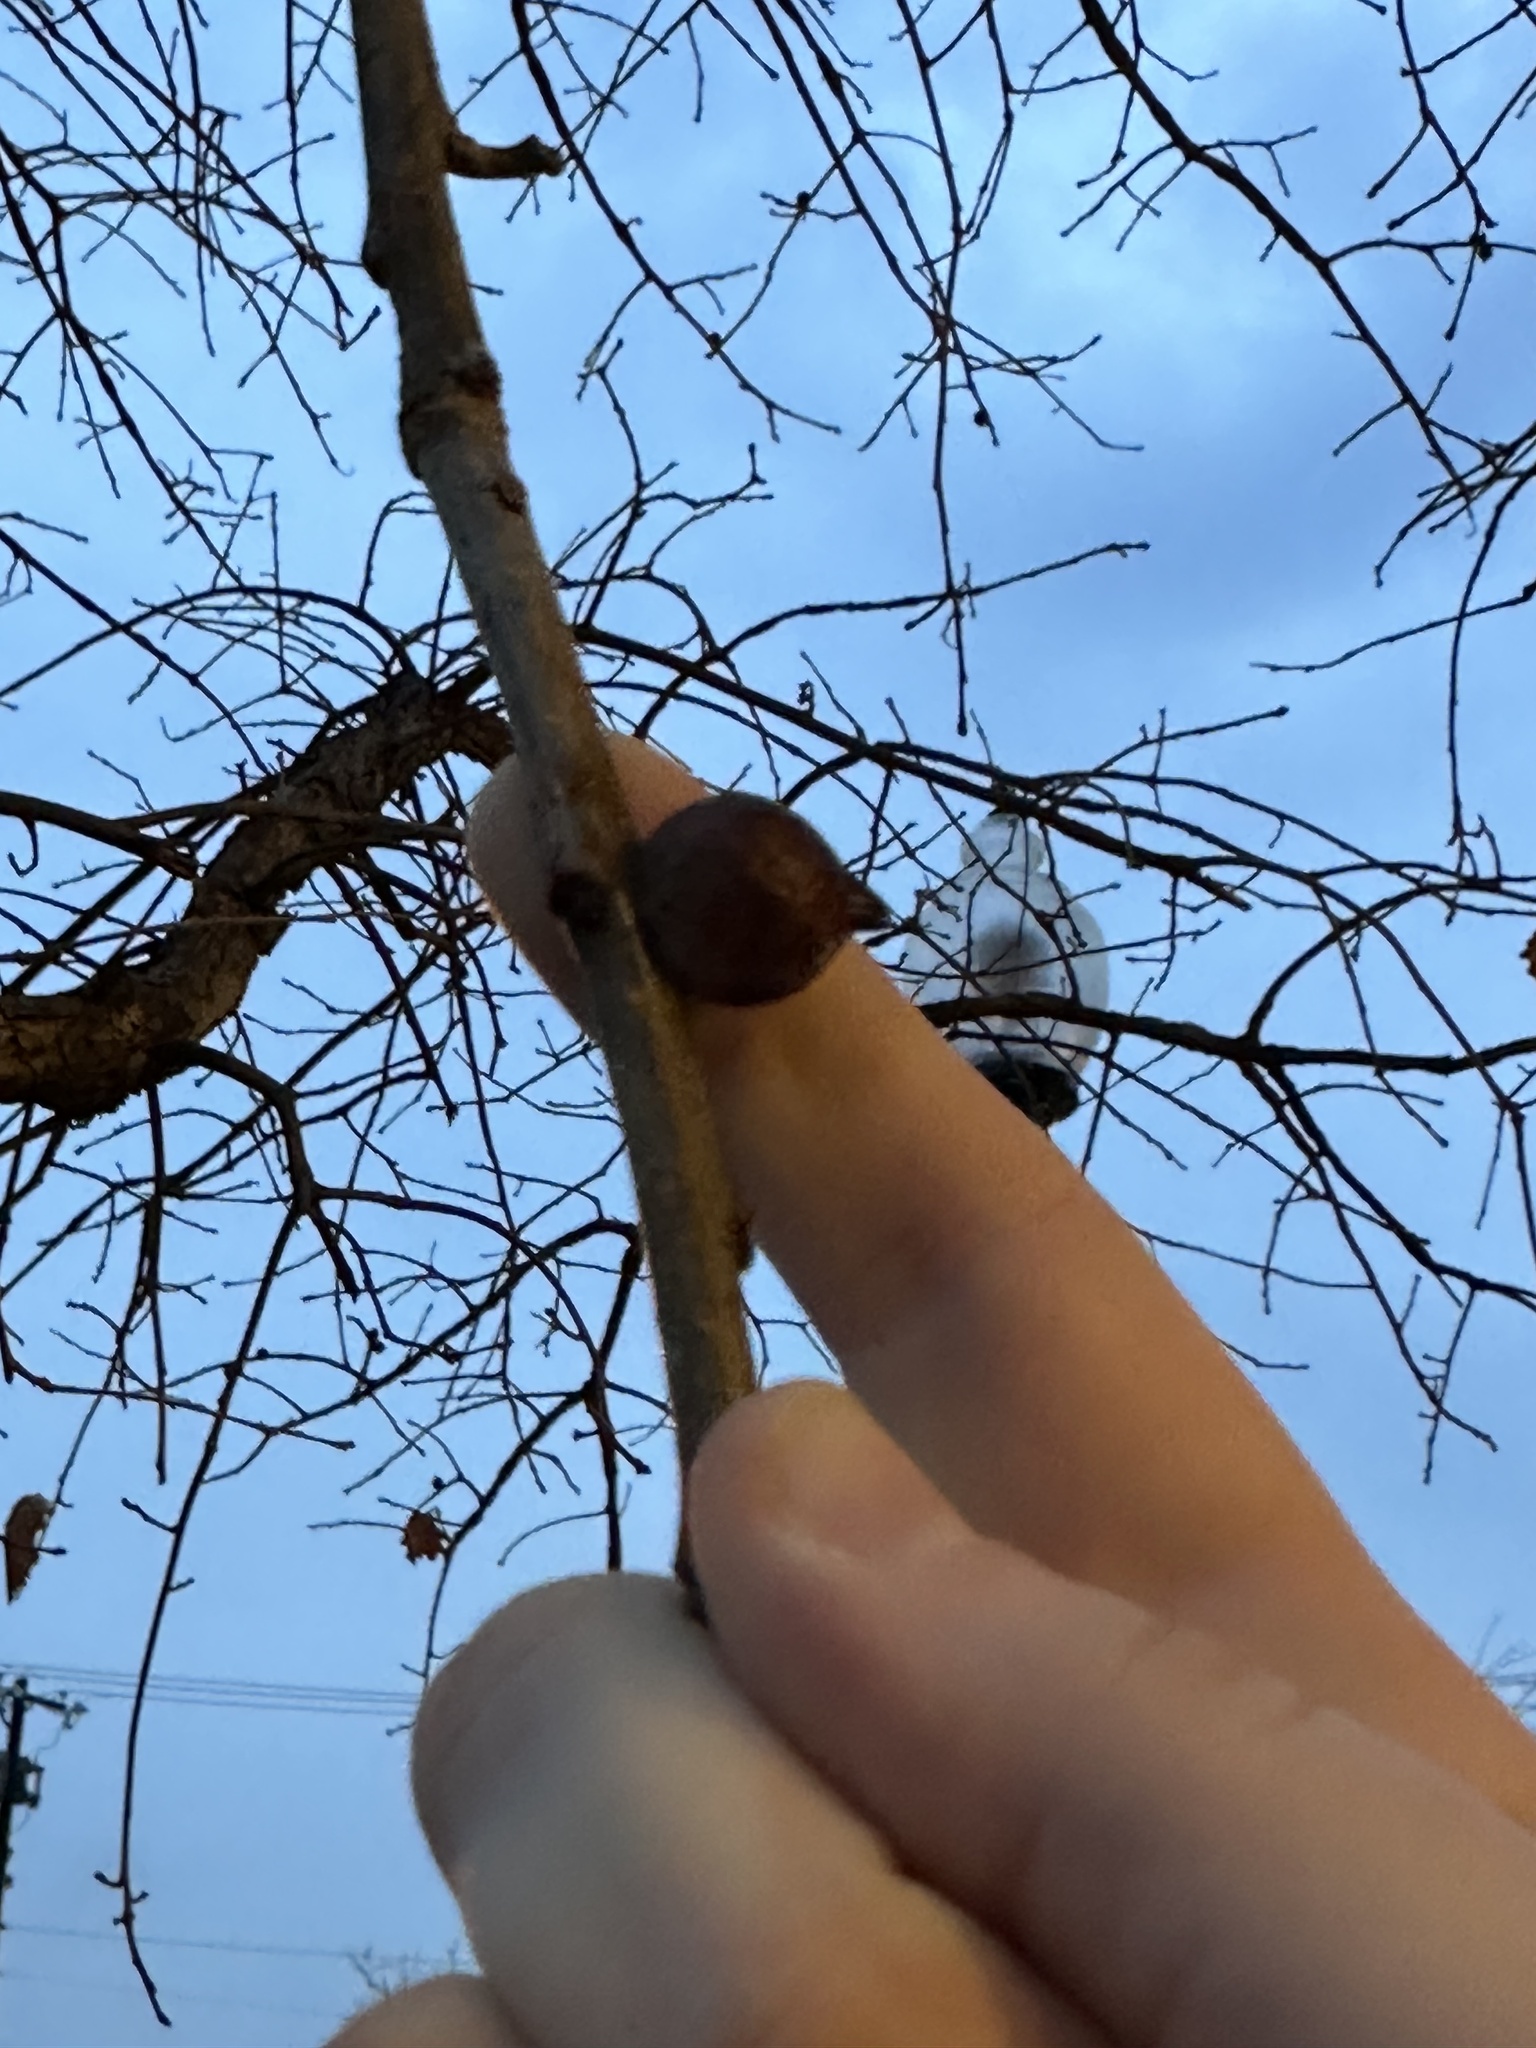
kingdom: Animalia
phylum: Arthropoda
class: Insecta
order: Hymenoptera
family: Cynipidae
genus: Disholcaspis
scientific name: Disholcaspis
